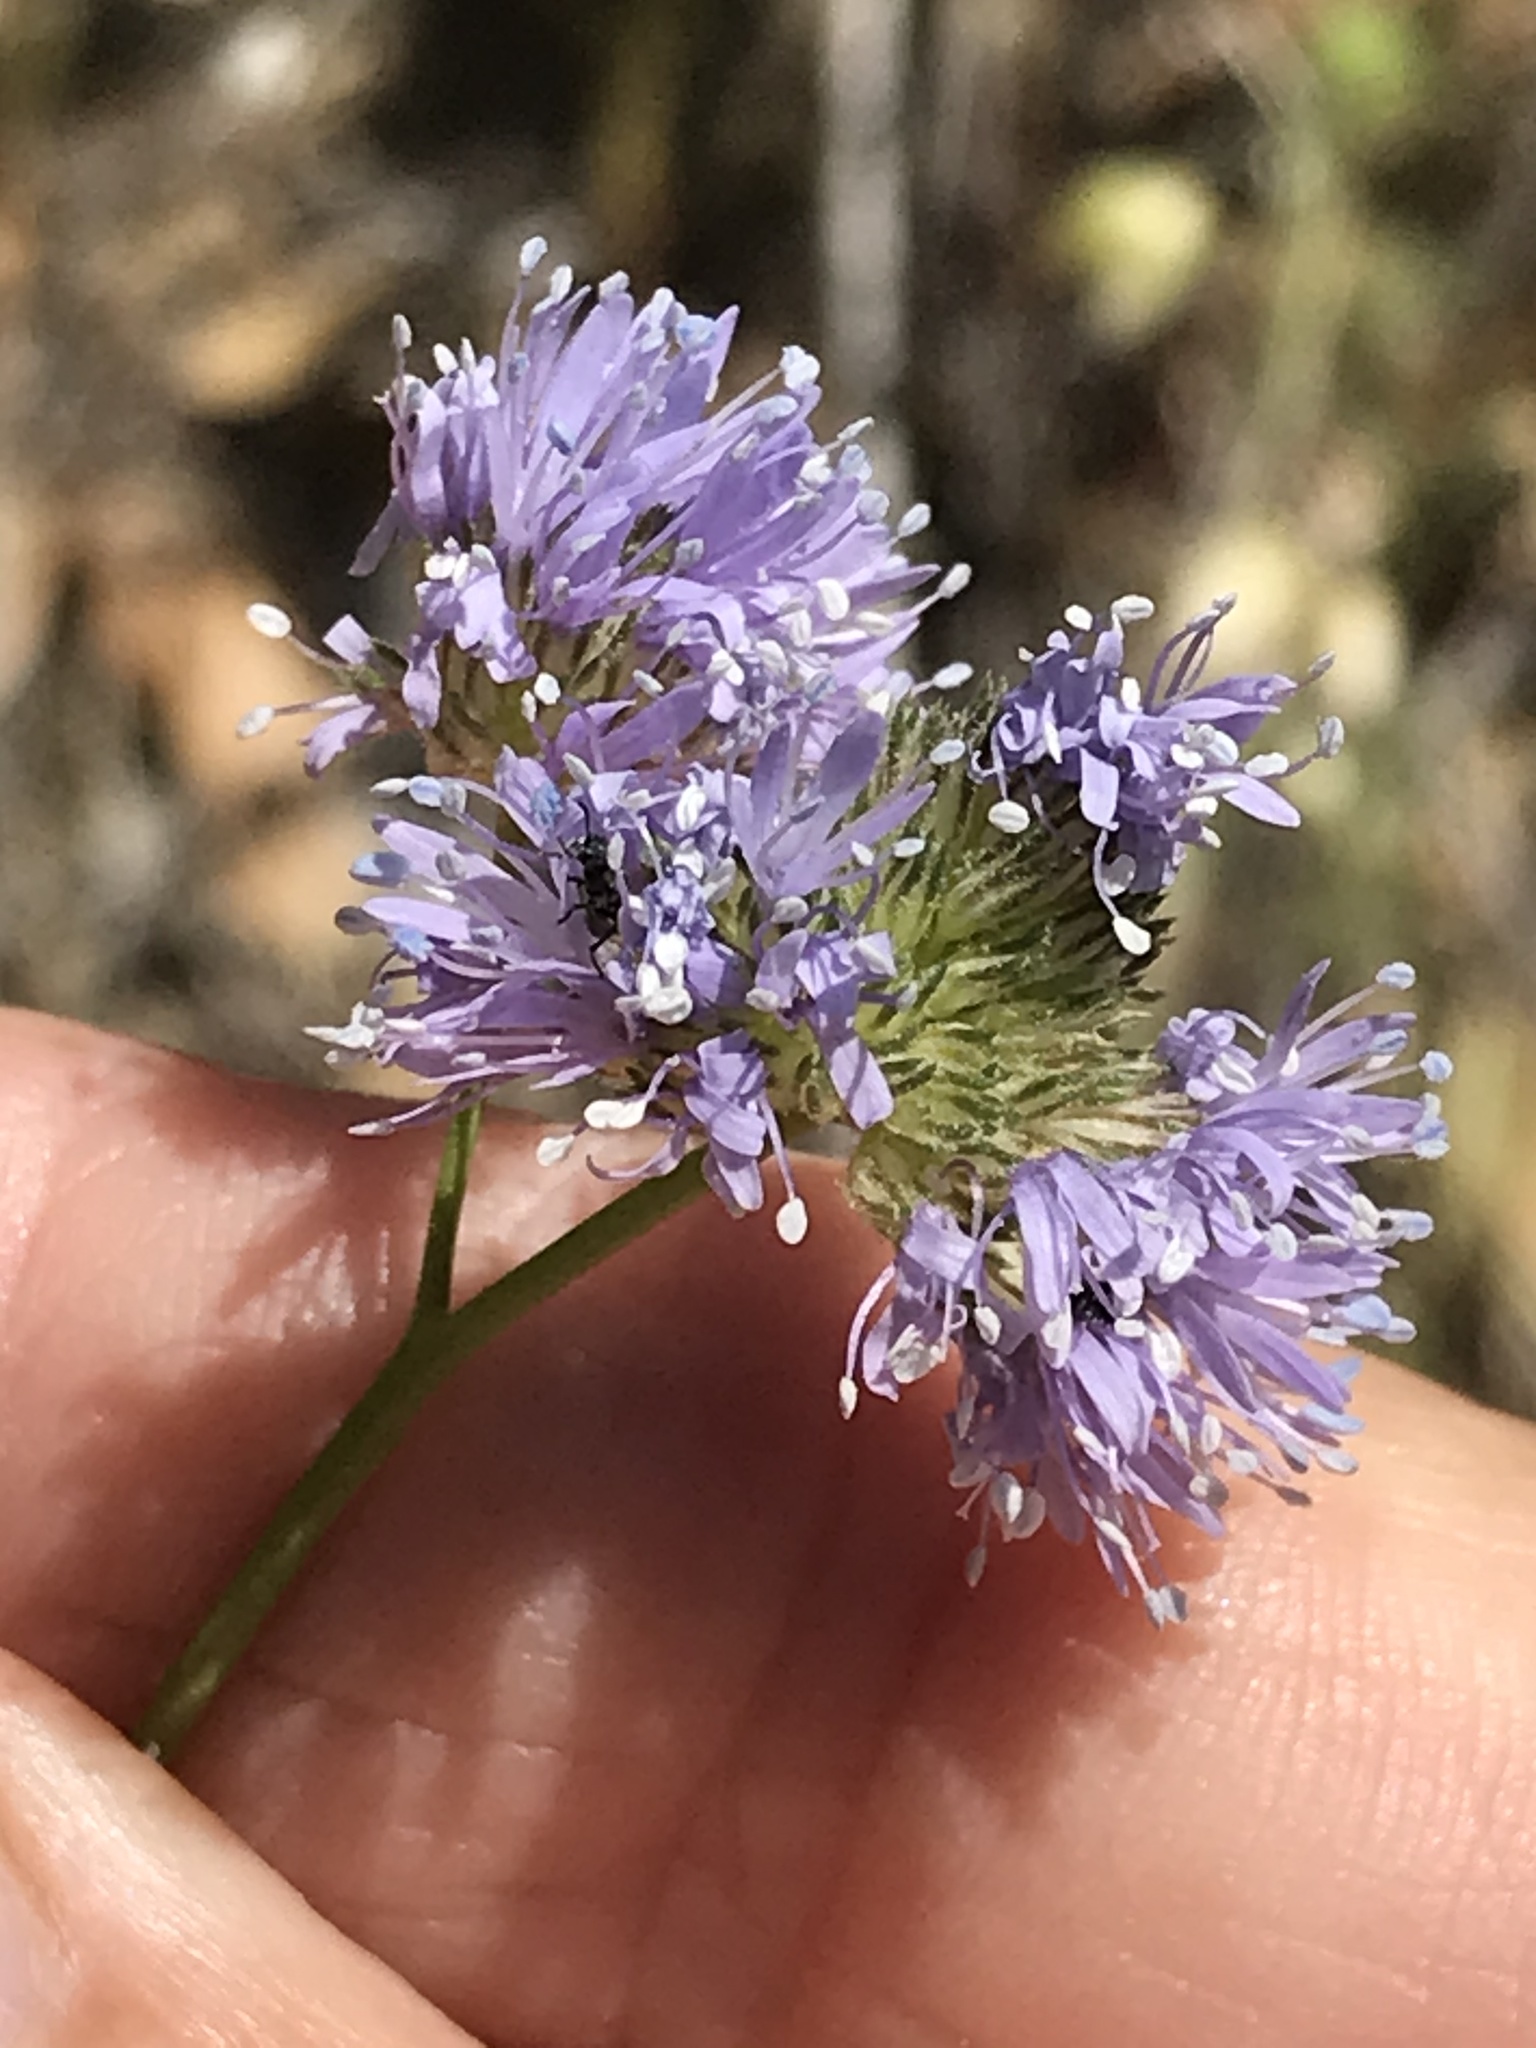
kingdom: Plantae
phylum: Tracheophyta
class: Magnoliopsida
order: Ericales
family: Polemoniaceae
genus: Gilia
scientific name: Gilia capitata
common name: Bluehead gilia
